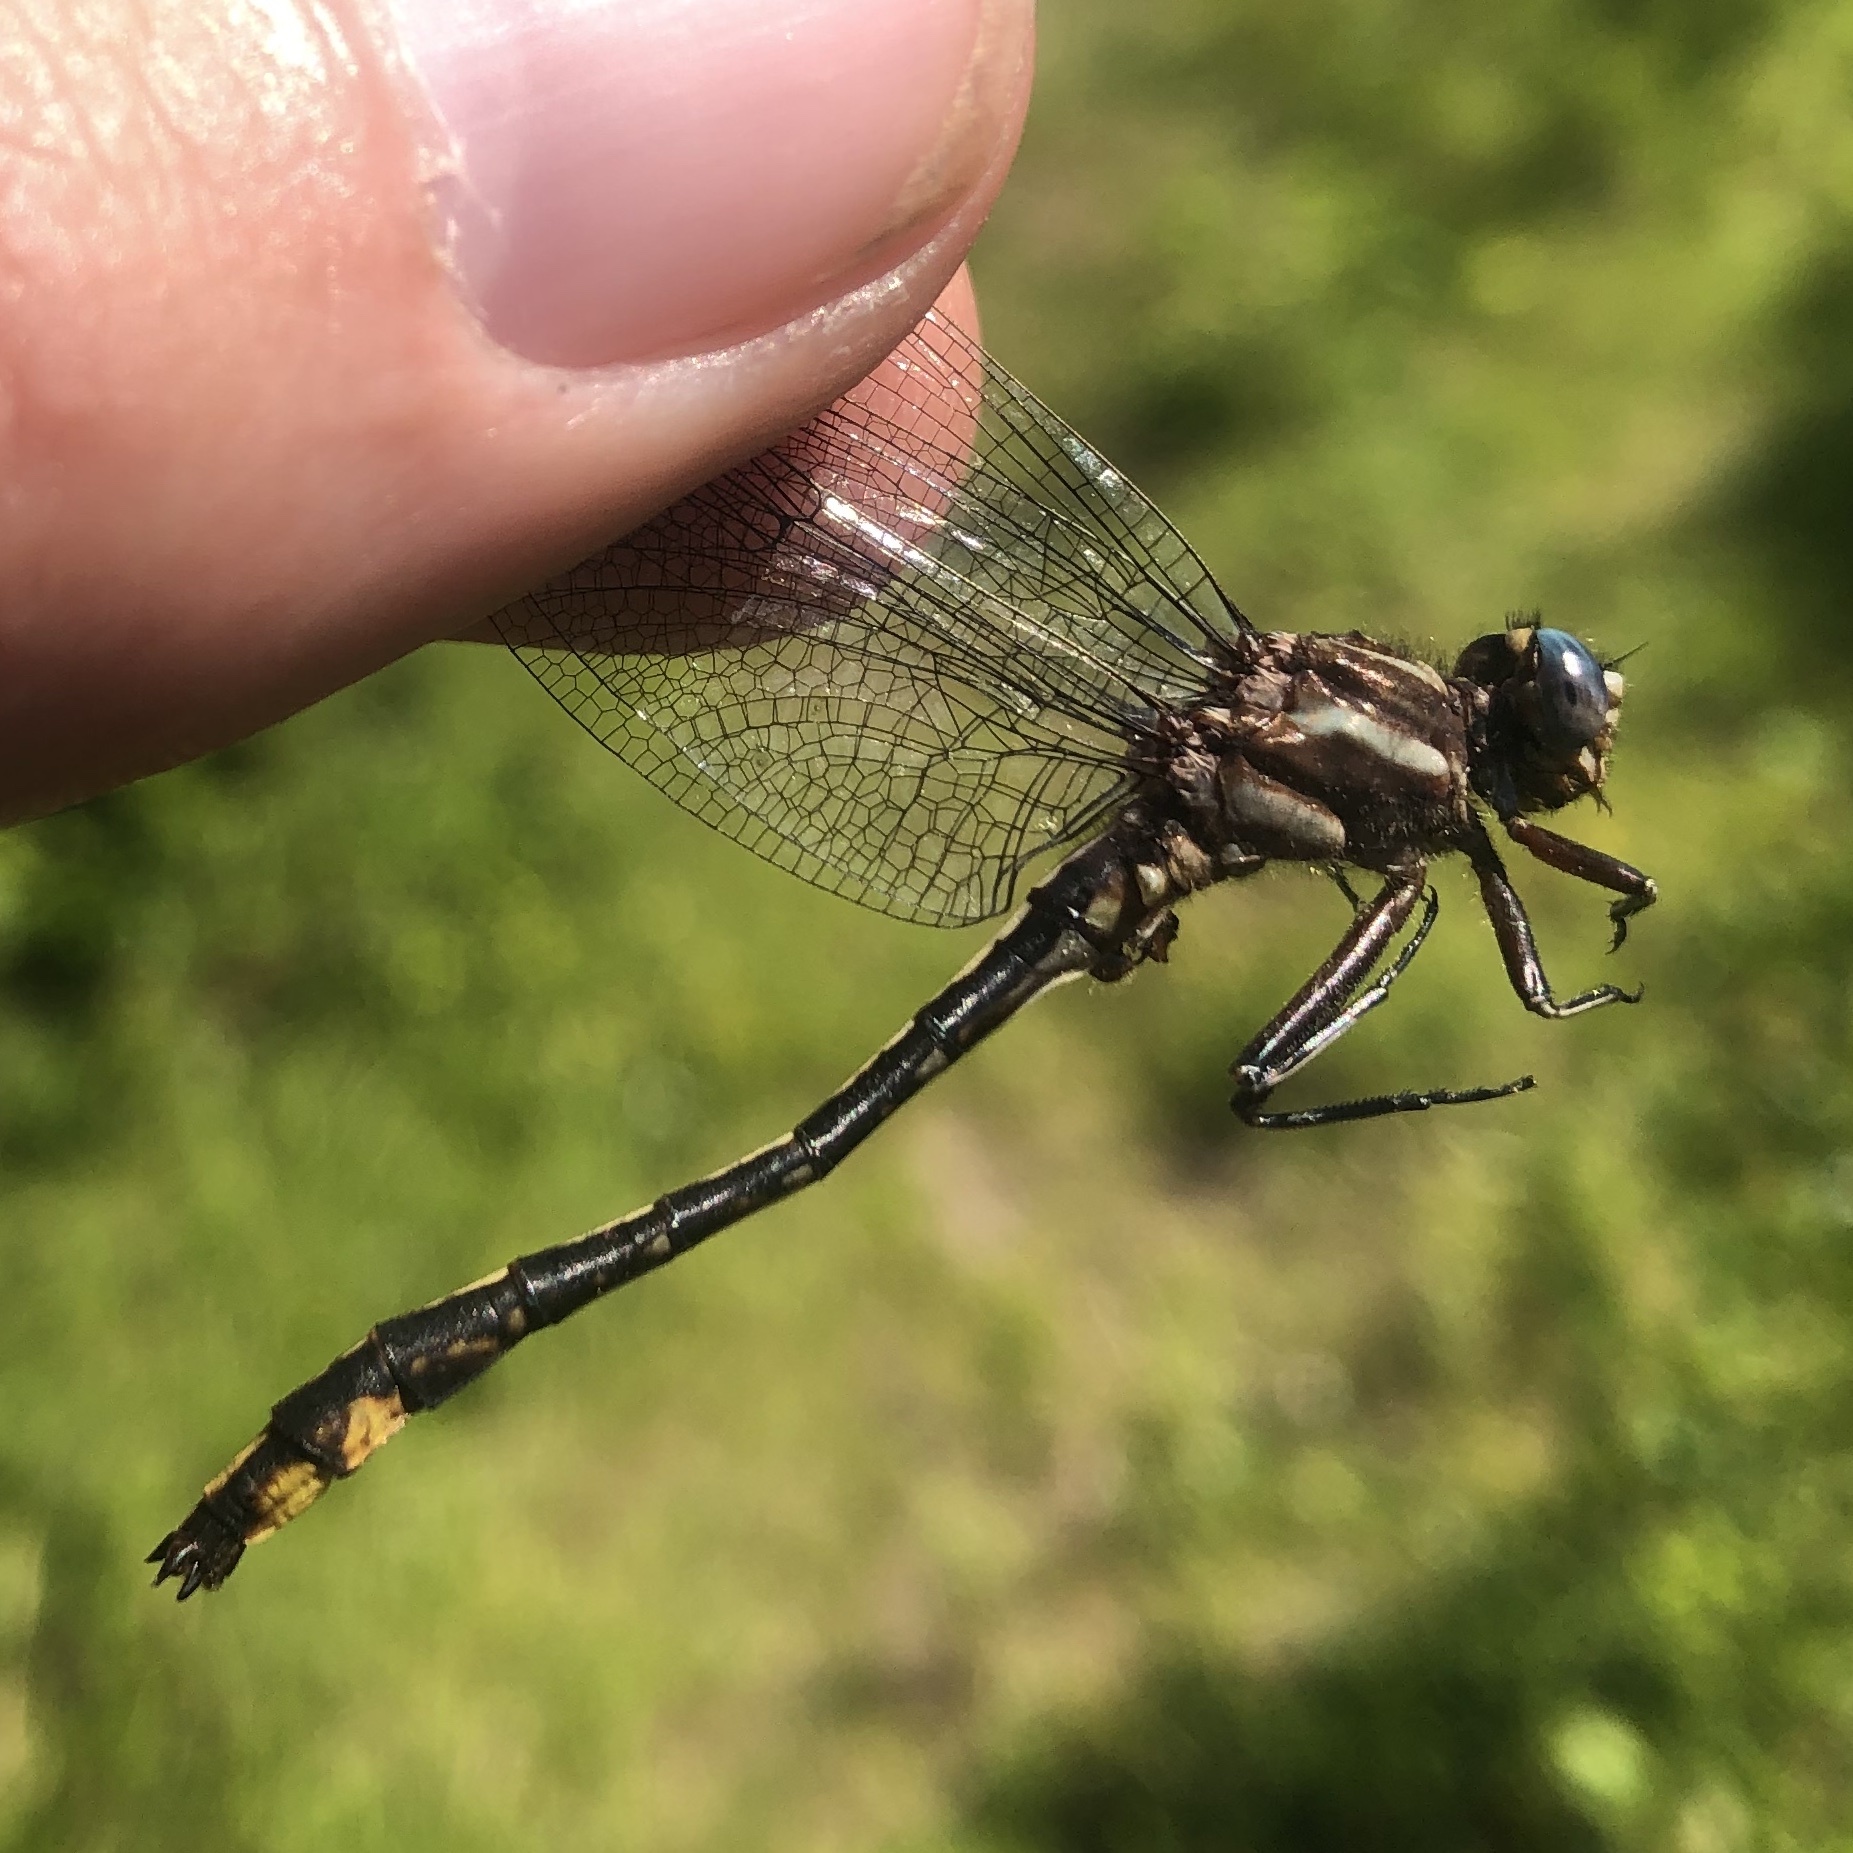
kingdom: Animalia
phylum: Arthropoda
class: Insecta
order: Odonata
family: Gomphidae
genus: Phanogomphus
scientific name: Phanogomphus exilis
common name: Lancet clubtail
